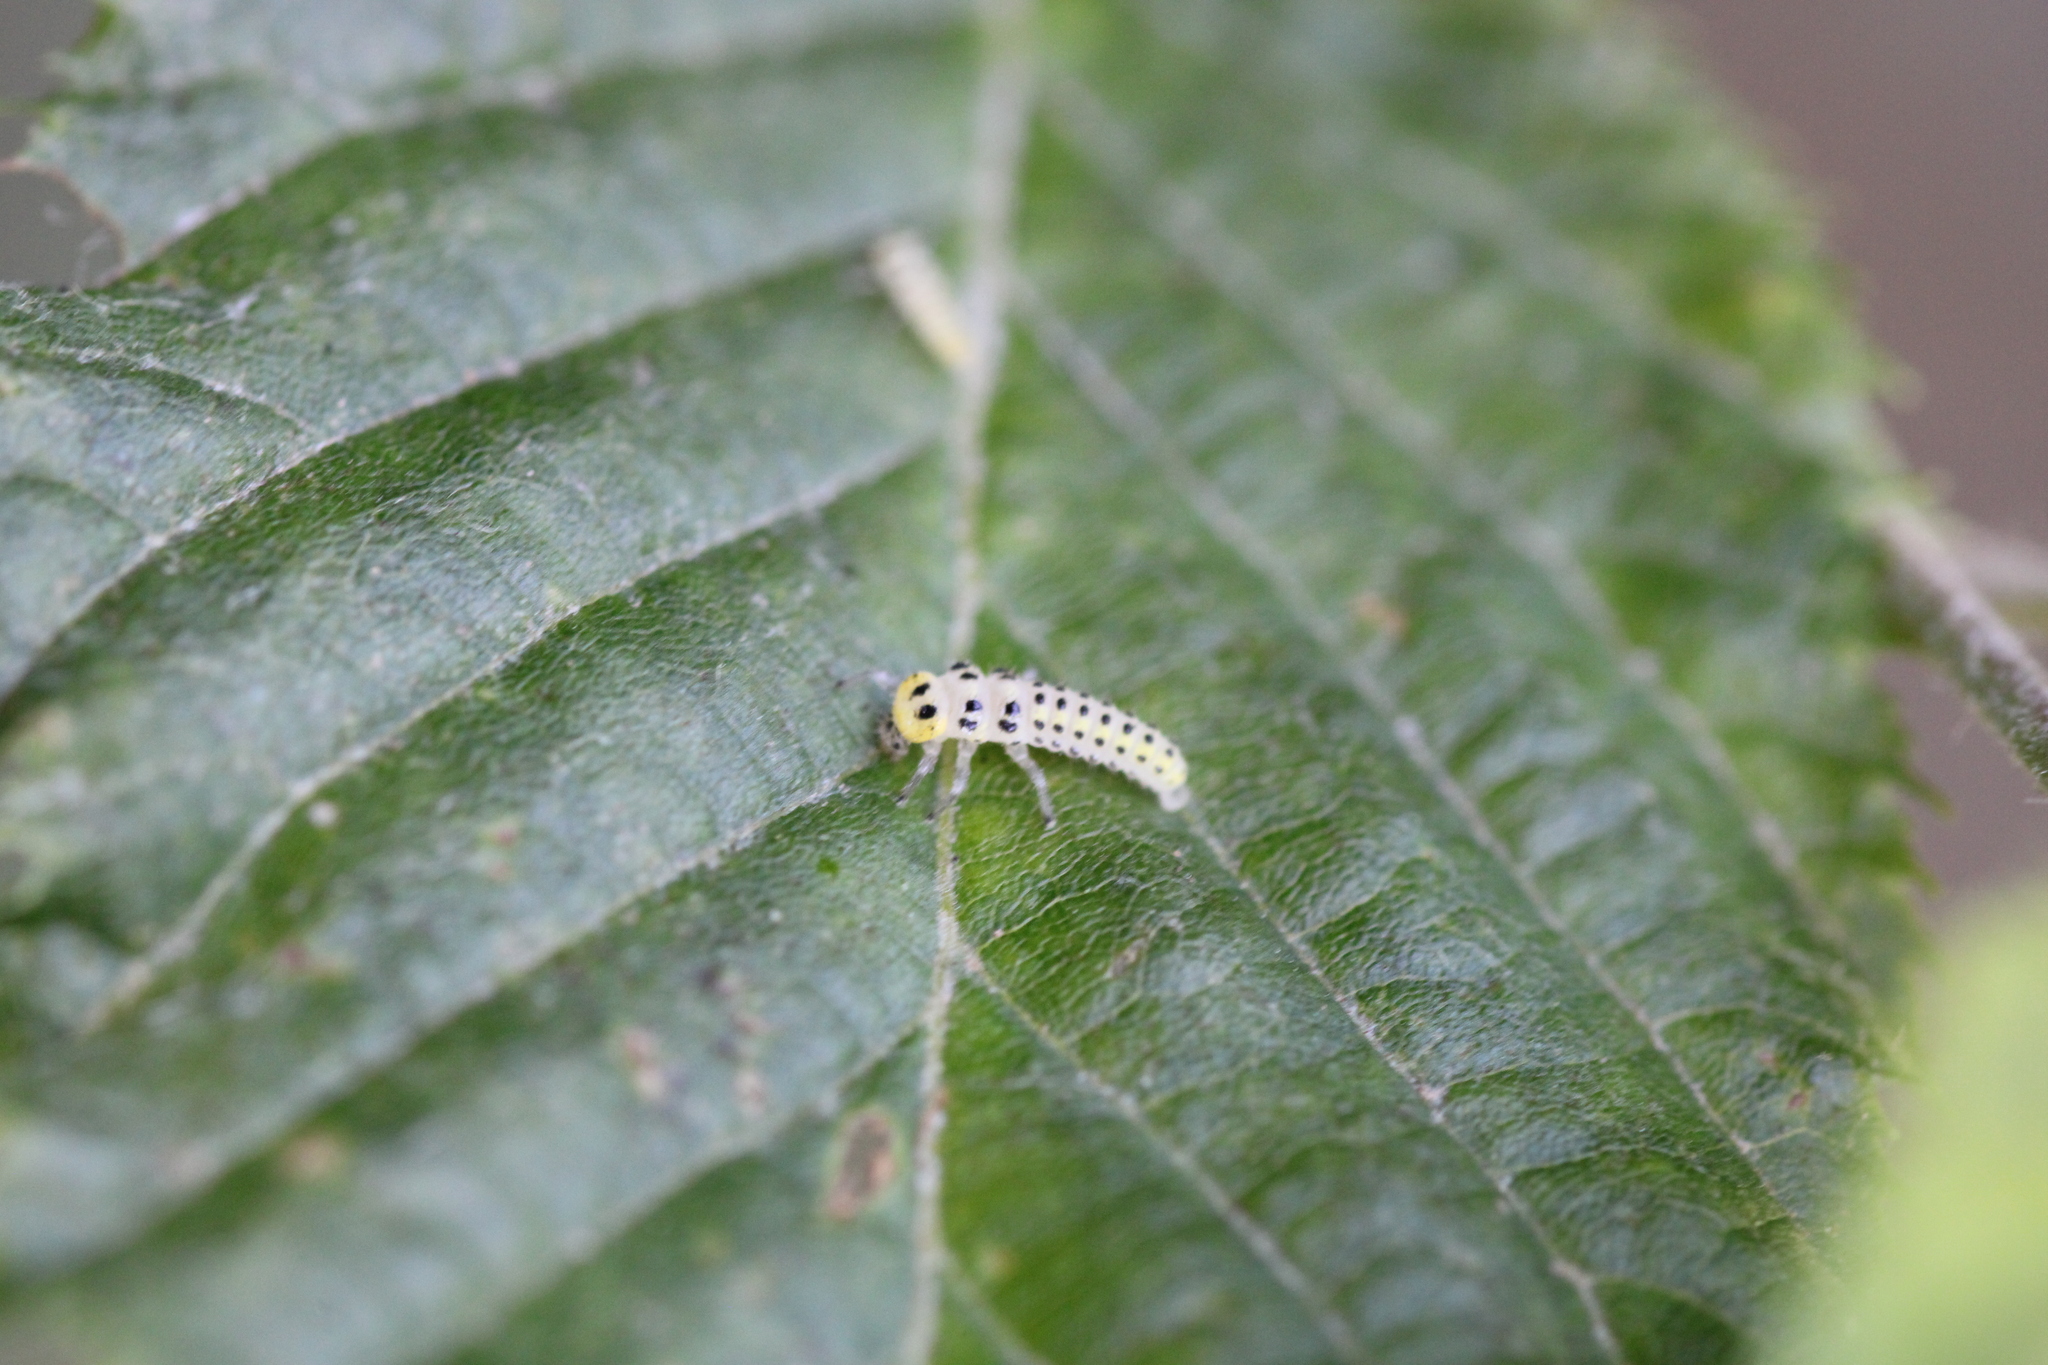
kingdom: Animalia
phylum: Arthropoda
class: Insecta
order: Coleoptera
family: Coccinellidae
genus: Vibidia
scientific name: Vibidia duodecimguttata
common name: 12-spot ladybird
